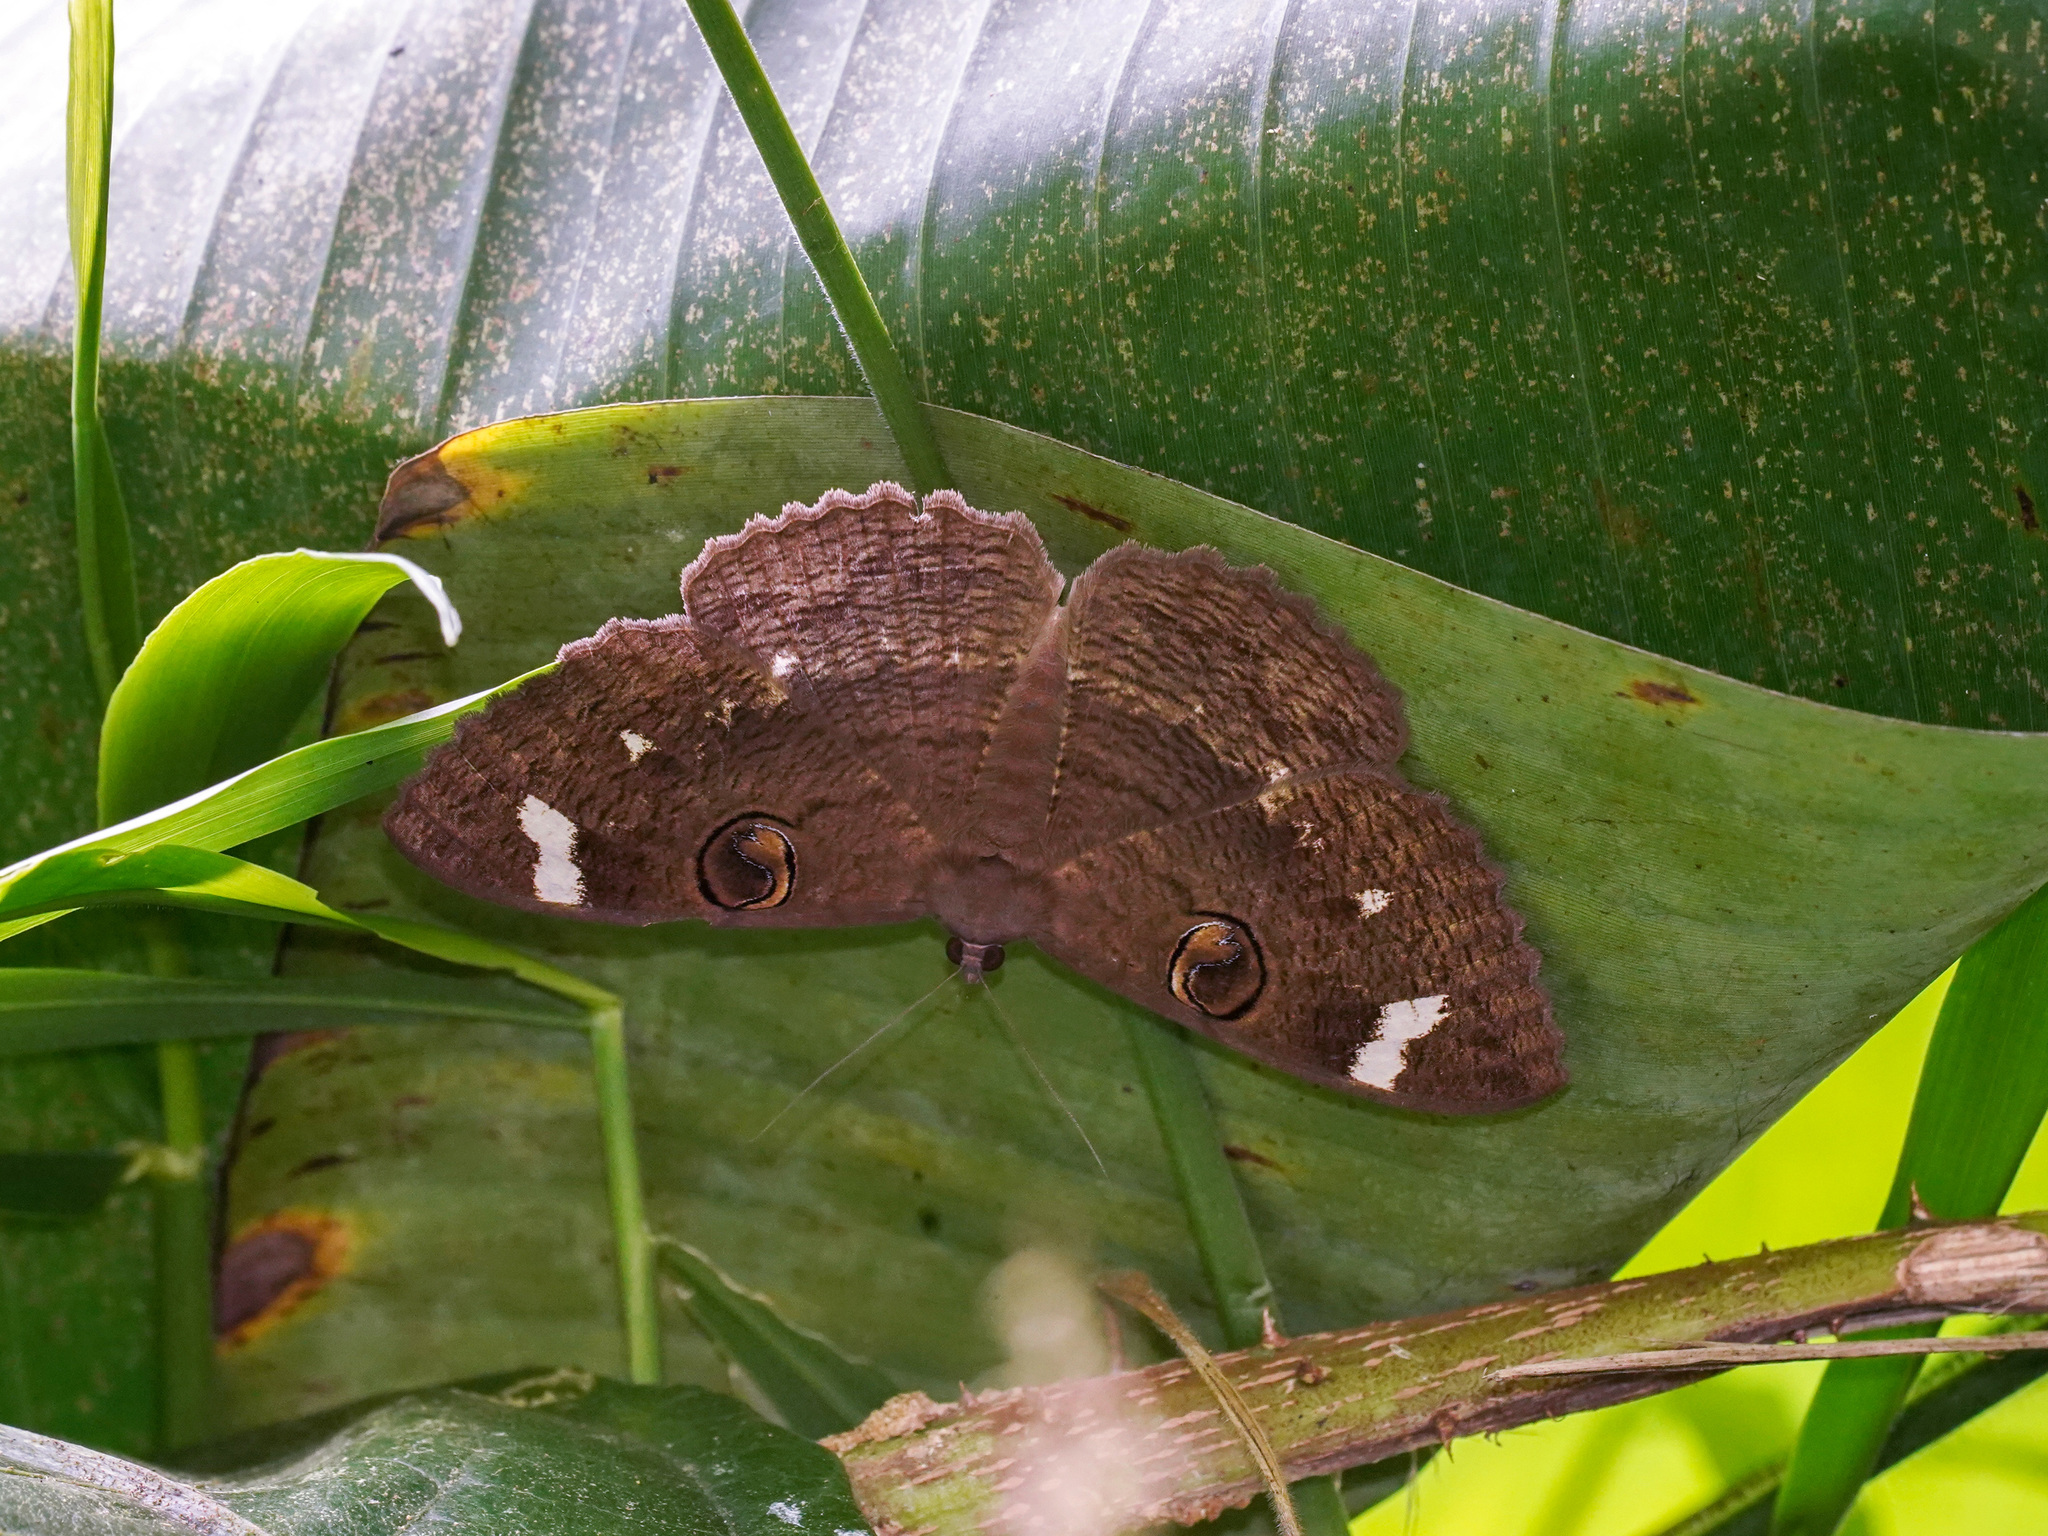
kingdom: Animalia
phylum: Arthropoda
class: Insecta
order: Lepidoptera
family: Erebidae
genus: Erebus
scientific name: Erebus hieroglyphica
